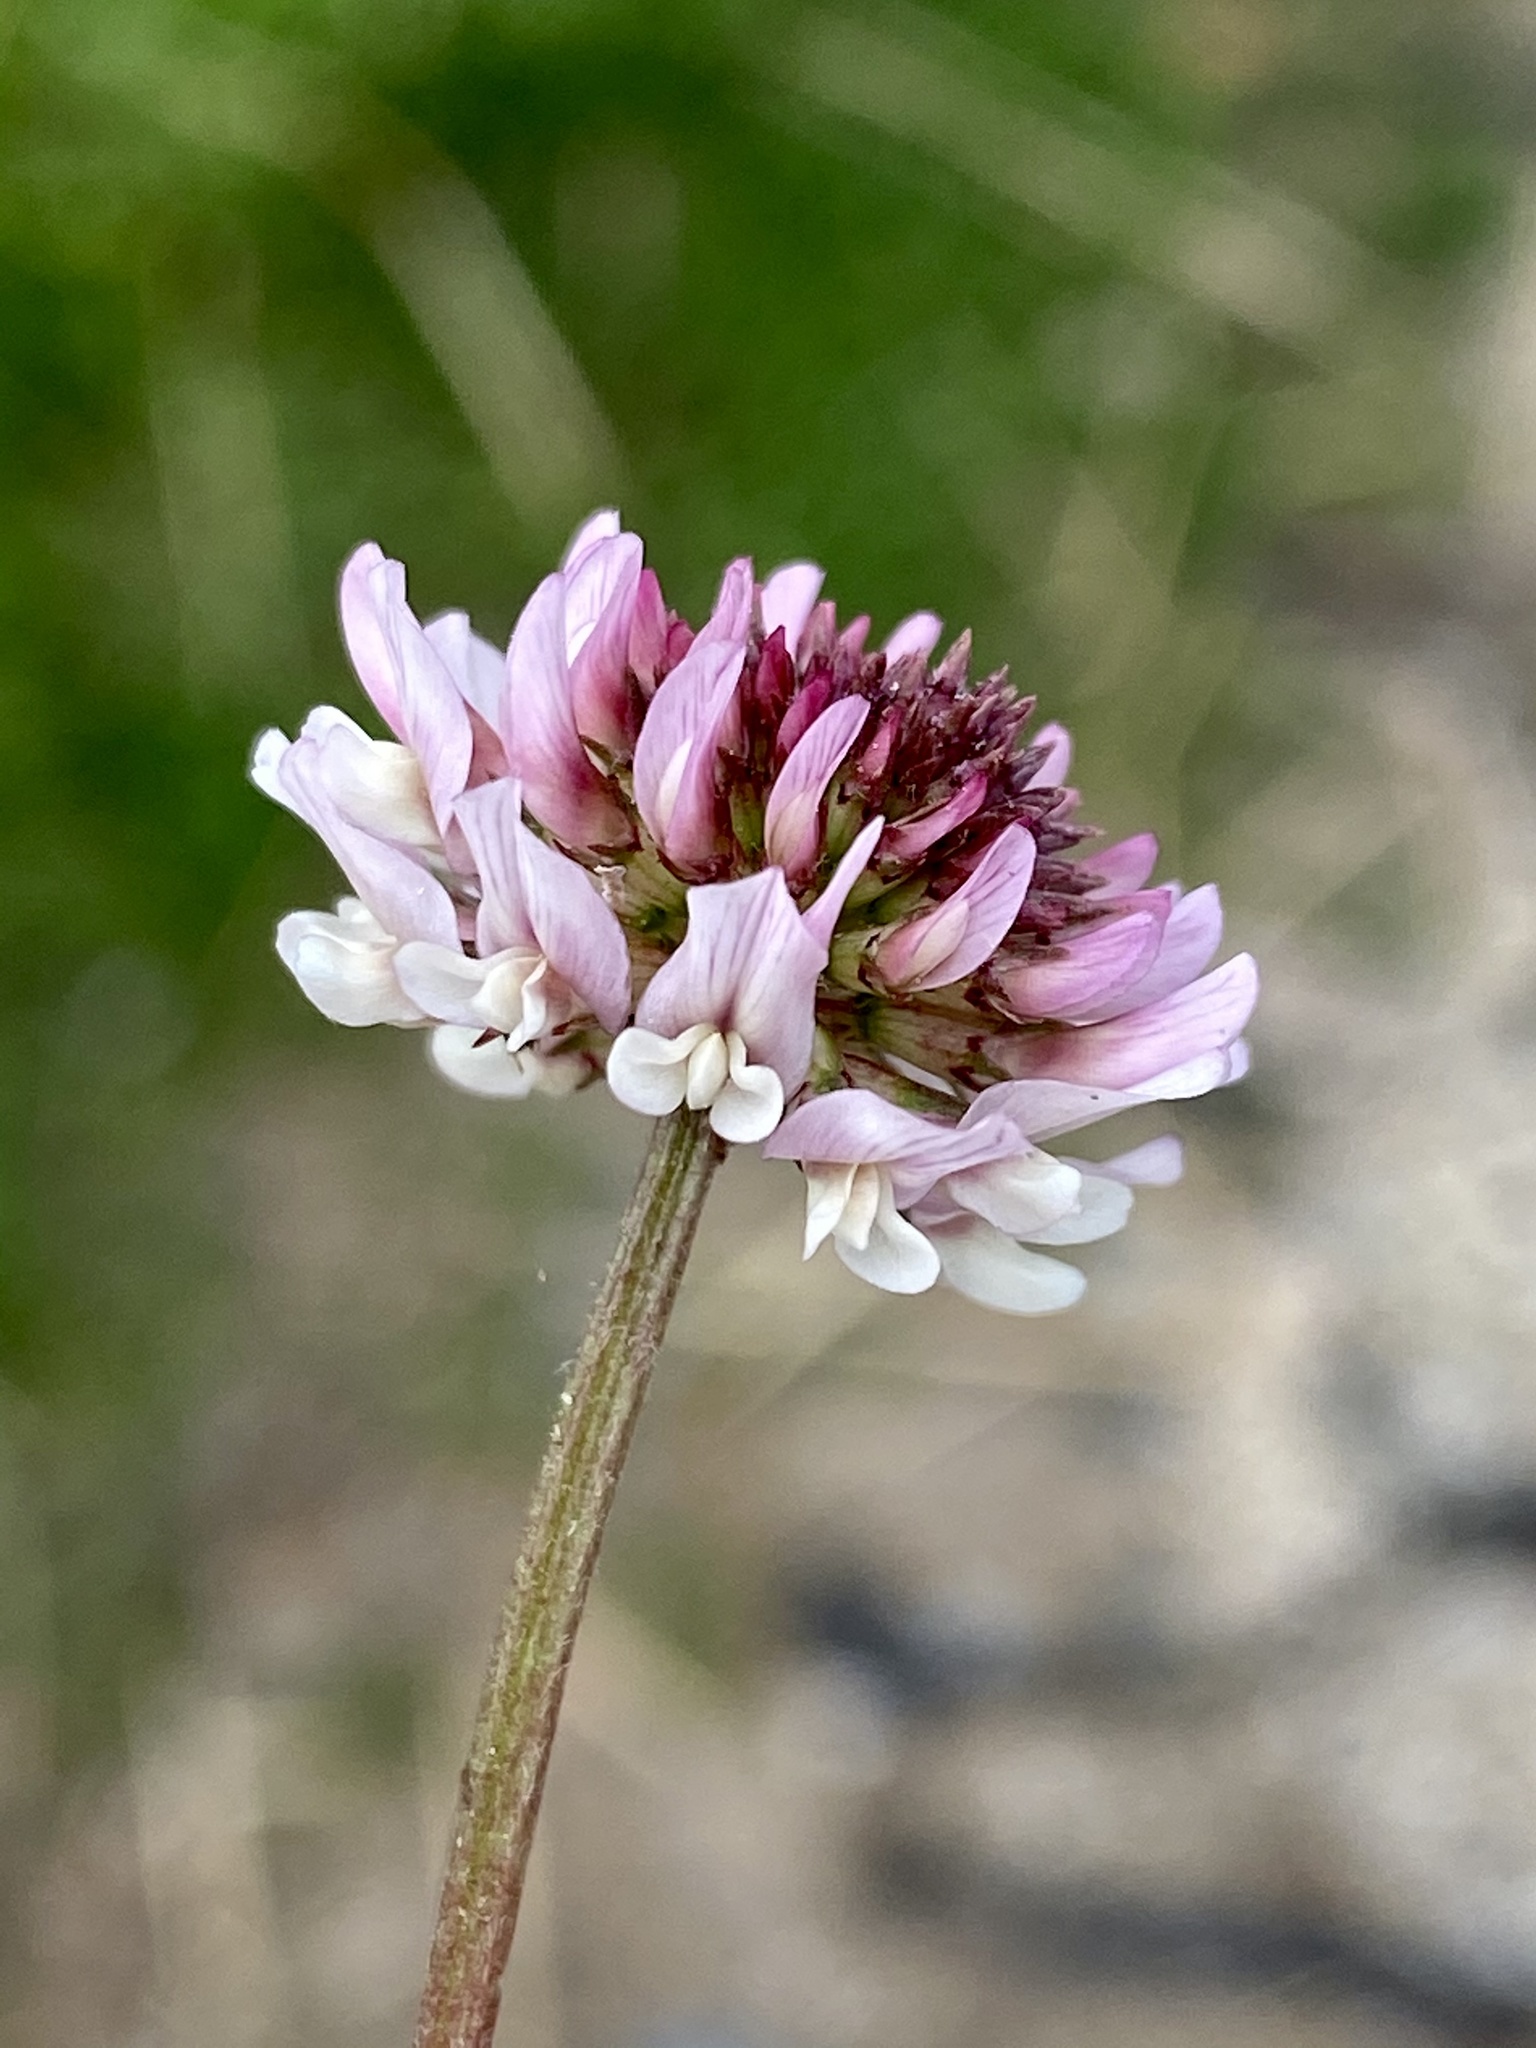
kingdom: Plantae
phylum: Tracheophyta
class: Magnoliopsida
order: Fabales
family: Fabaceae
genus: Trifolium
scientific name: Trifolium repens
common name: White clover
